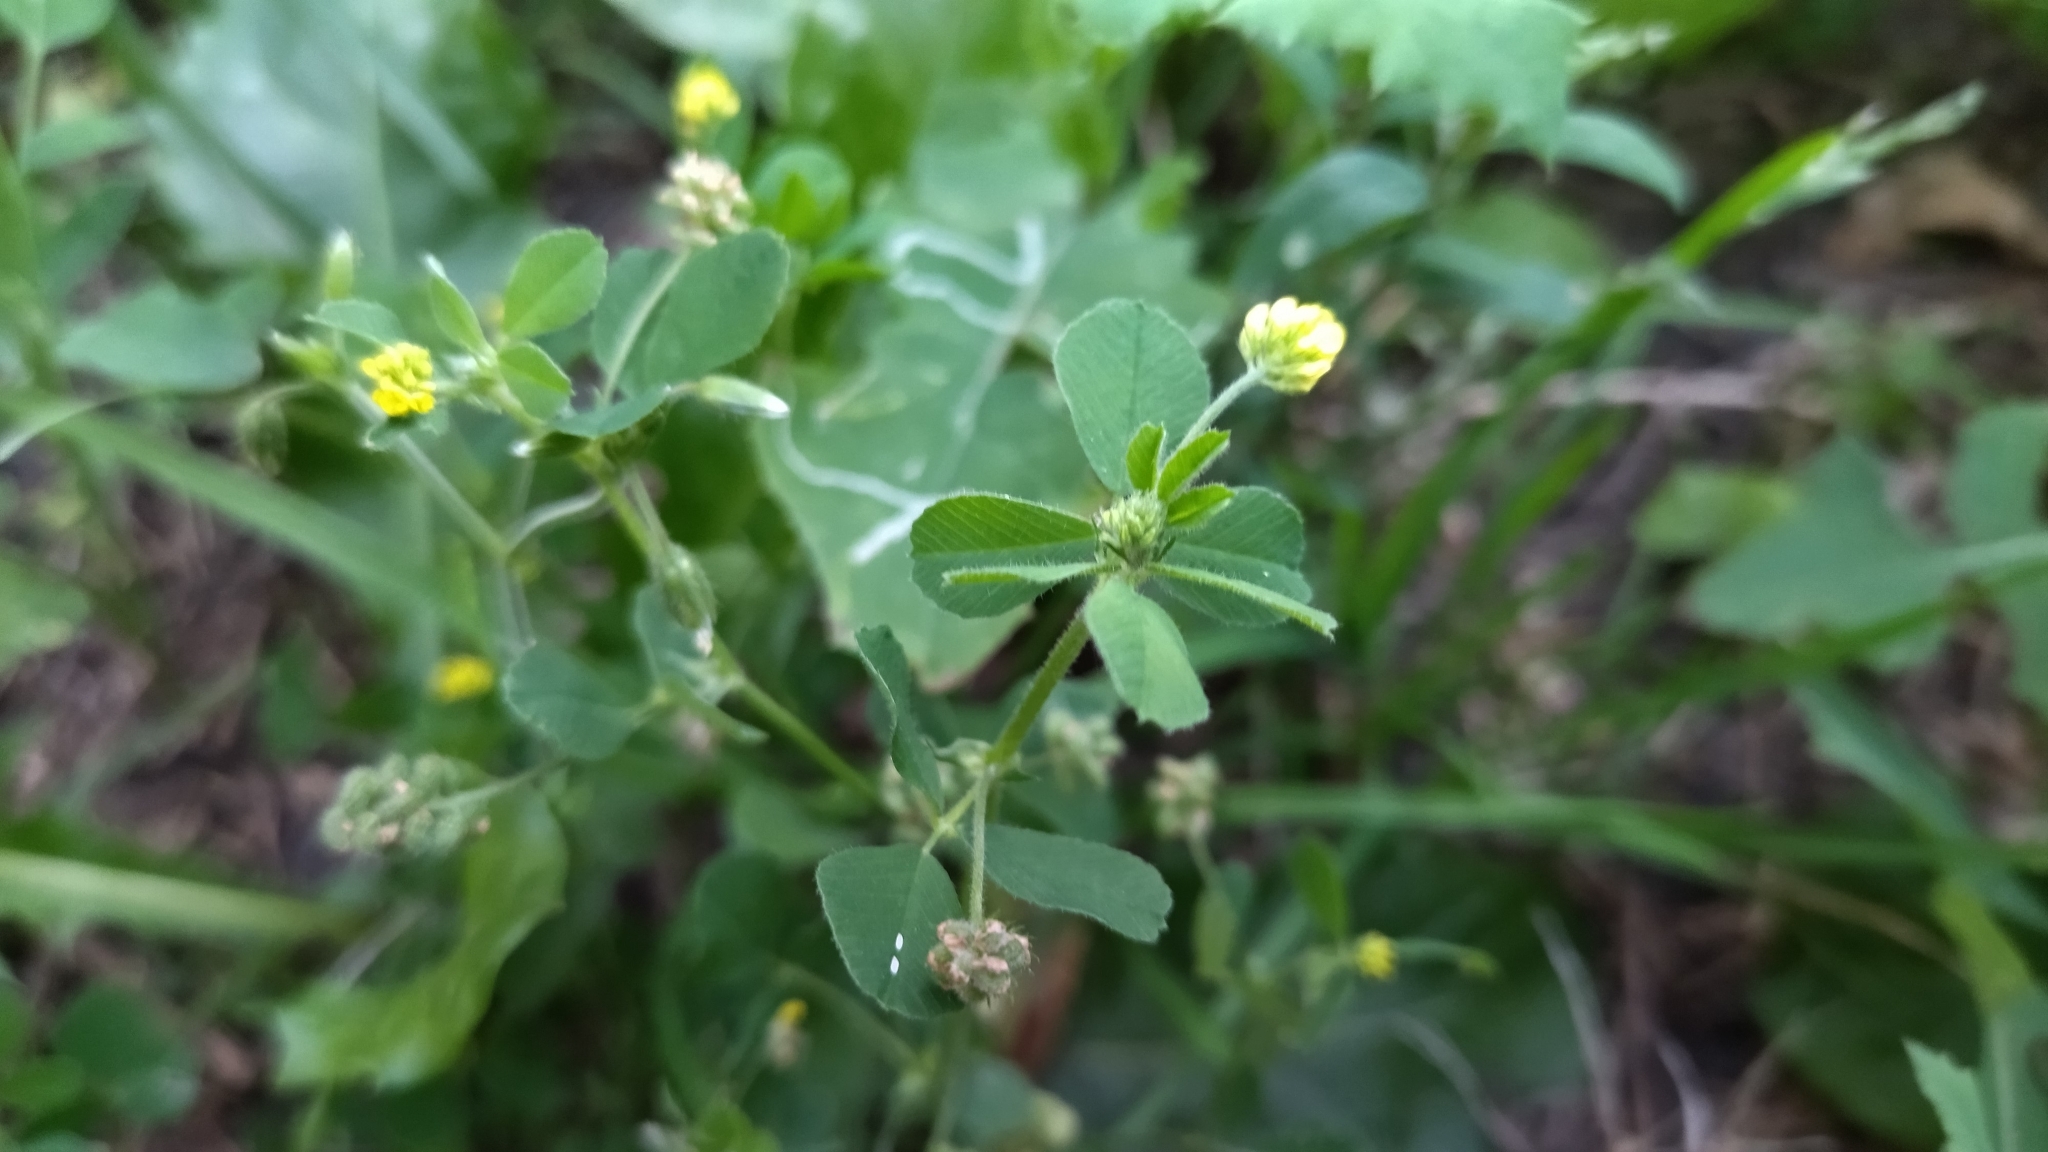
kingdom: Plantae
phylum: Tracheophyta
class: Magnoliopsida
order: Fabales
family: Fabaceae
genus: Medicago
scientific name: Medicago lupulina
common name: Black medick
